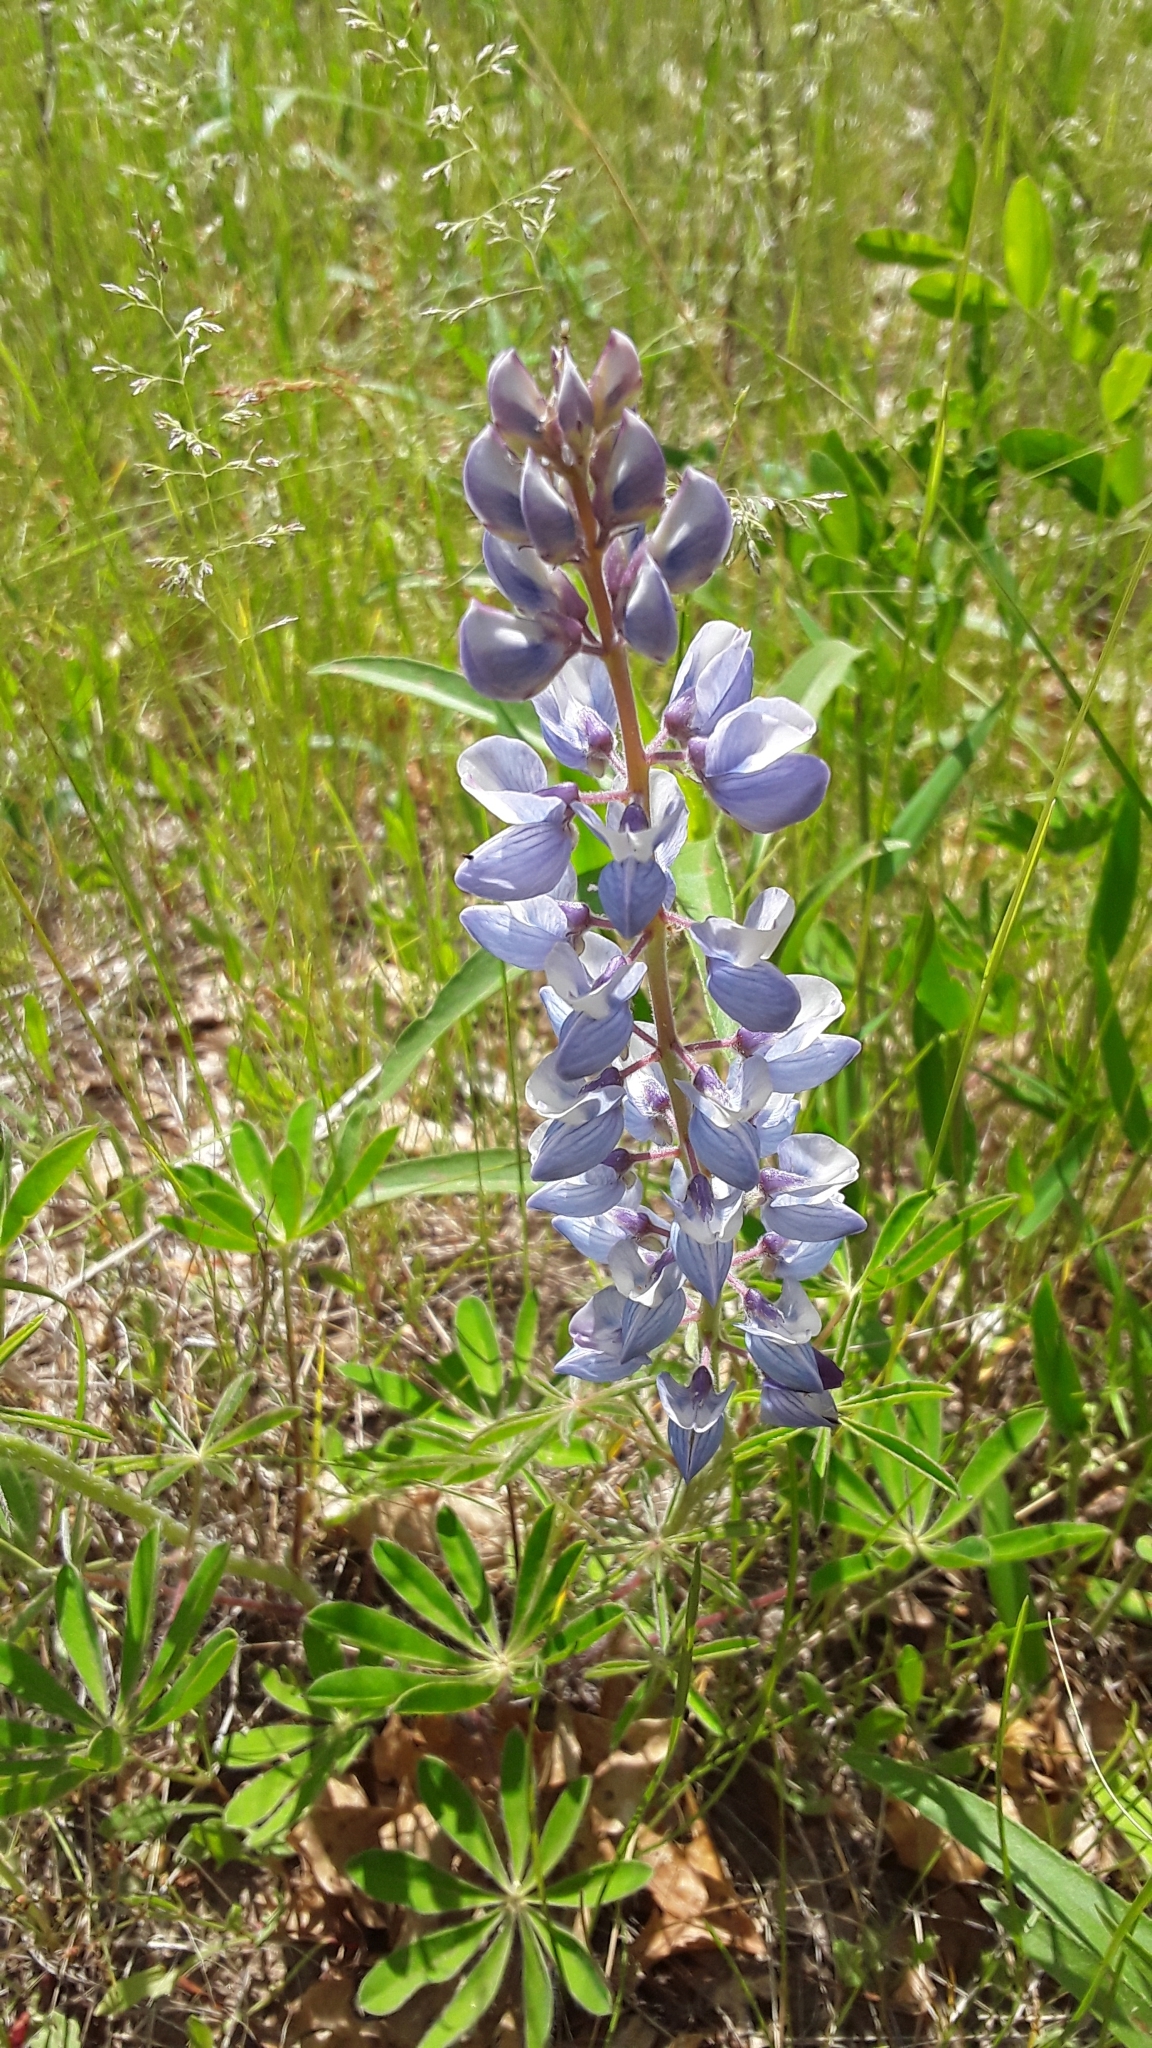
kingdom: Plantae
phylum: Tracheophyta
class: Magnoliopsida
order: Fabales
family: Fabaceae
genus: Lupinus
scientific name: Lupinus perennis
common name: Sundial lupine
